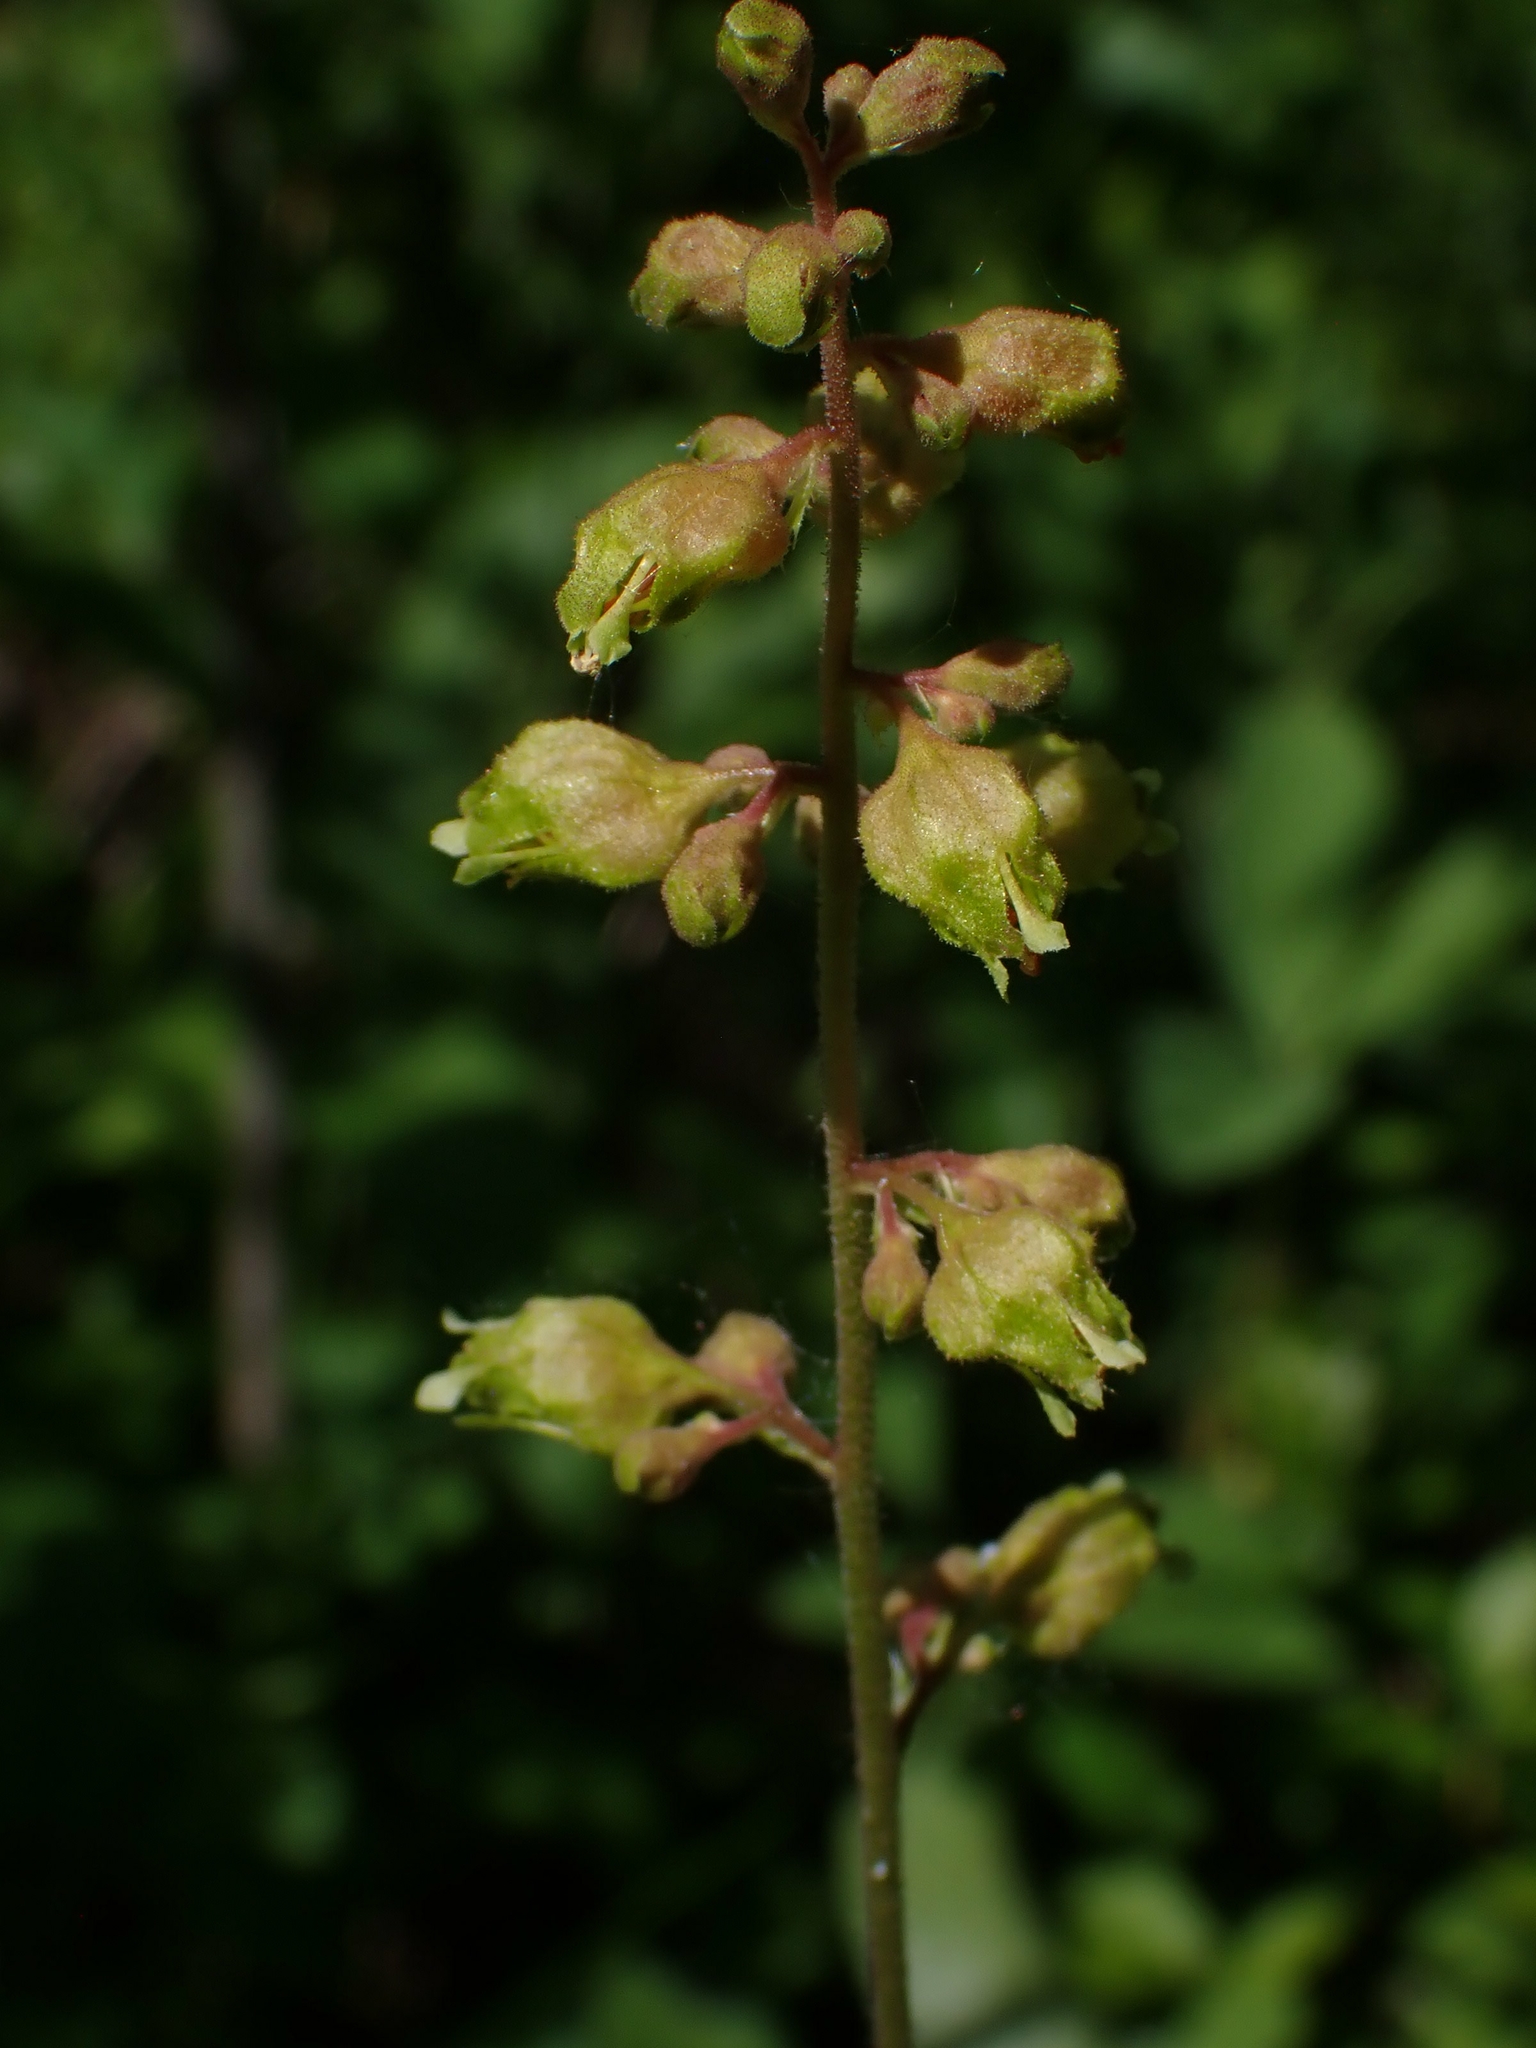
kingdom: Plantae
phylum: Tracheophyta
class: Magnoliopsida
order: Saxifragales
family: Saxifragaceae
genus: Heuchera
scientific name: Heuchera richardsonii
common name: Richardson's alumroot
